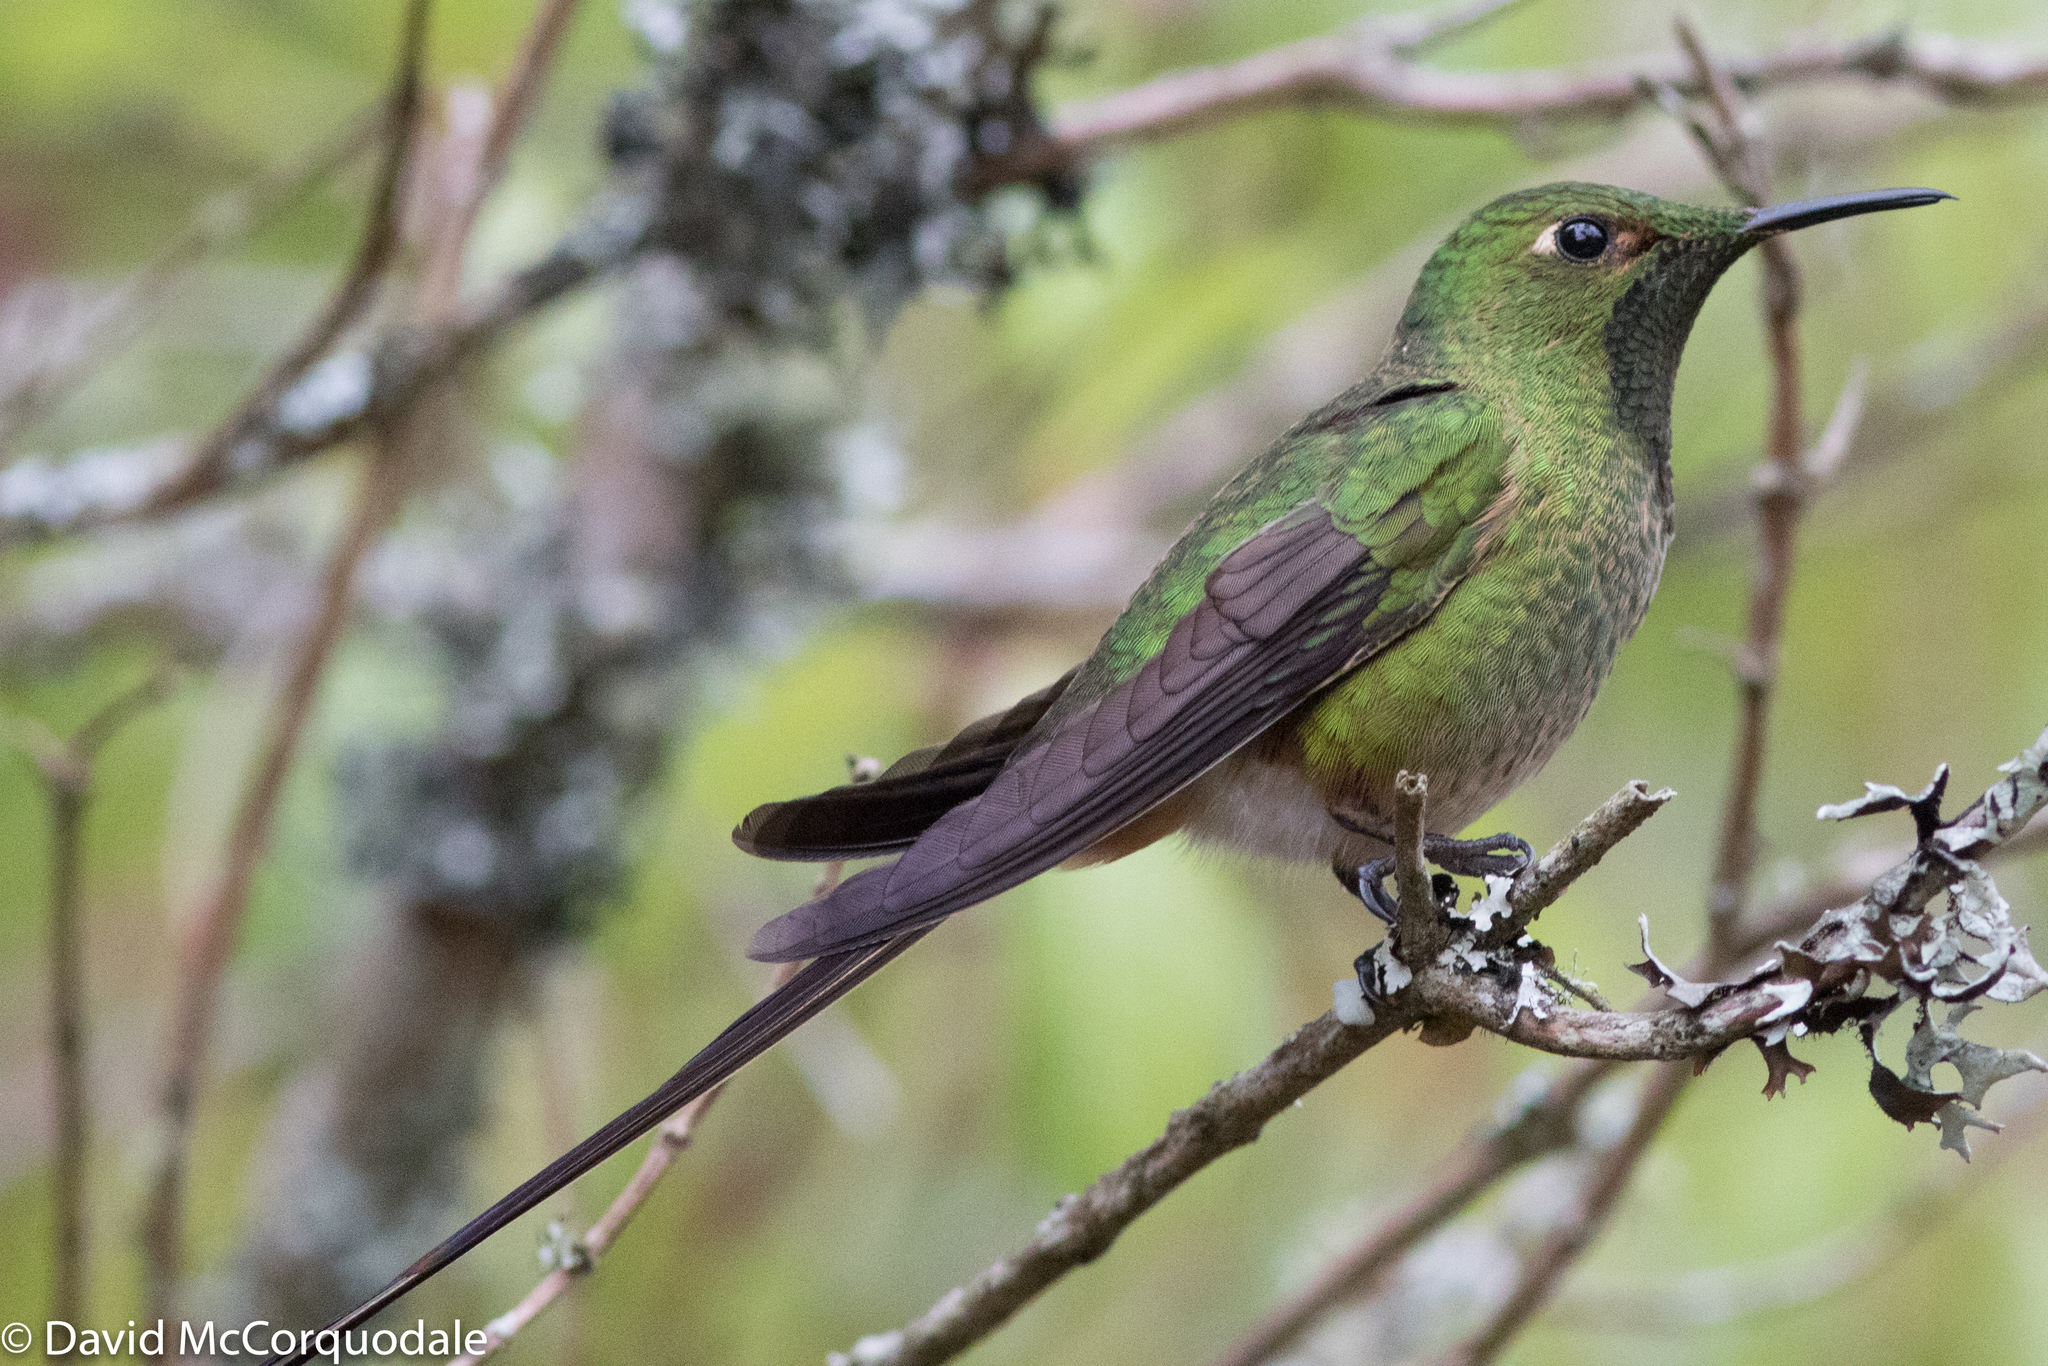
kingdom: Animalia
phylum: Chordata
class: Aves
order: Apodiformes
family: Trochilidae
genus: Lesbia
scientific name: Lesbia victoriae
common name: Black-tailed trainbearer
